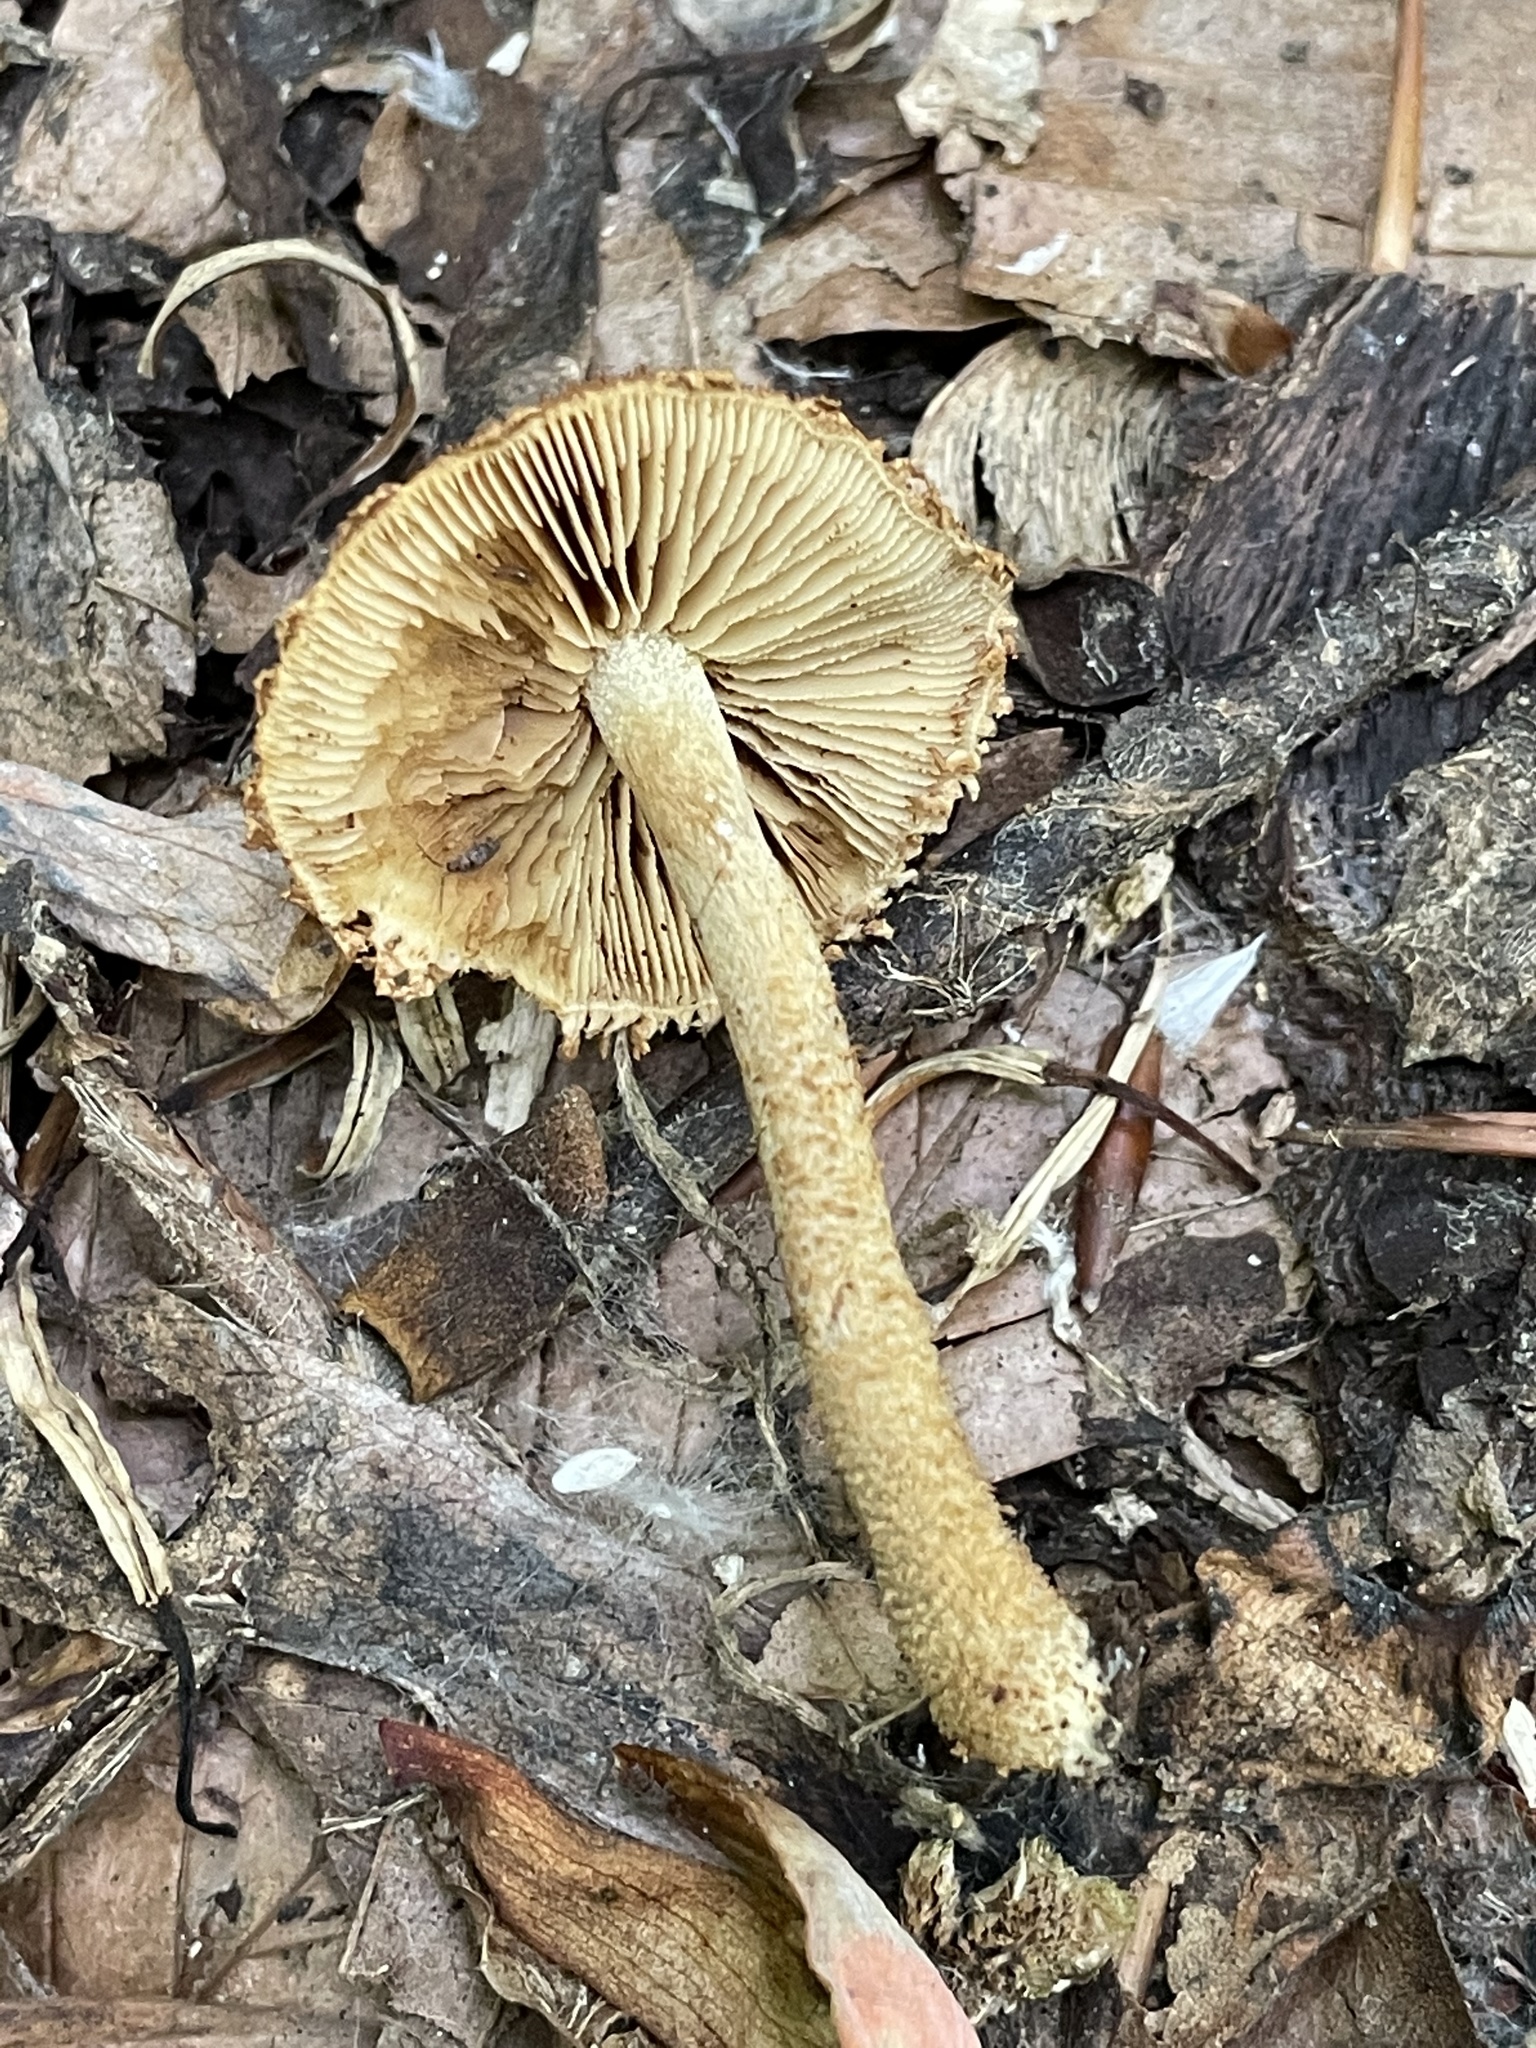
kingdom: Fungi
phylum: Basidiomycota
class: Agaricomycetes
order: Agaricales
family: Tubariaceae
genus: Flammulaster
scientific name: Flammulaster erinaceellus
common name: Powder-scale pholiota
